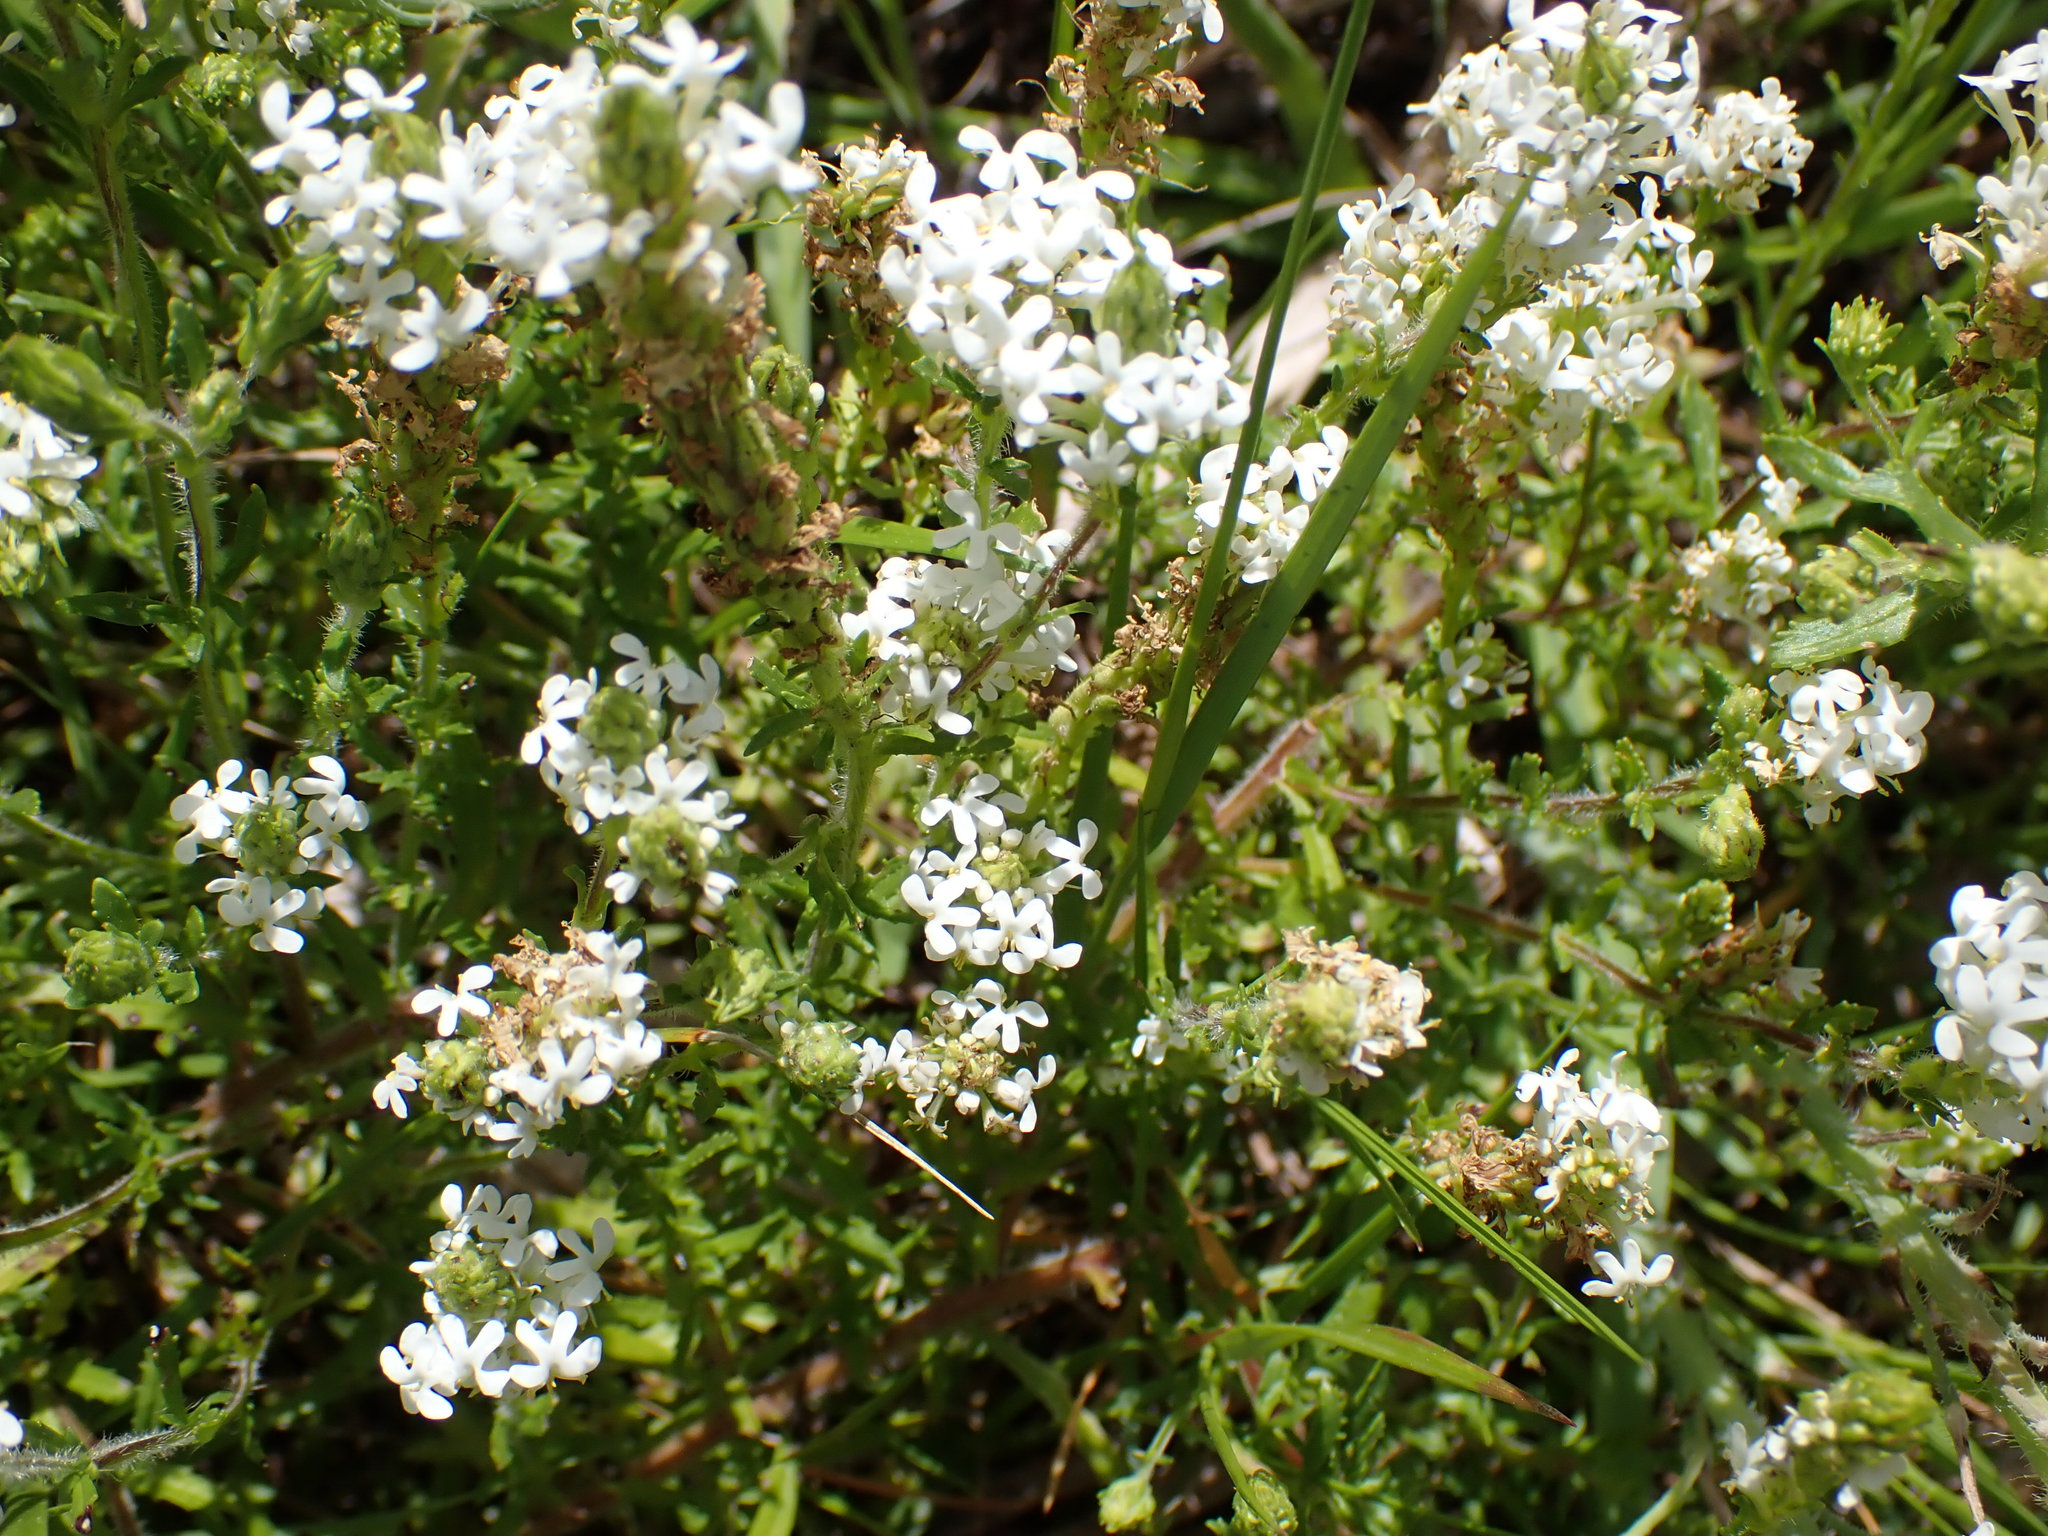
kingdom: Plantae
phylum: Tracheophyta
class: Magnoliopsida
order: Lamiales
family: Scrophulariaceae
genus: Dischisma
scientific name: Dischisma ciliatum
